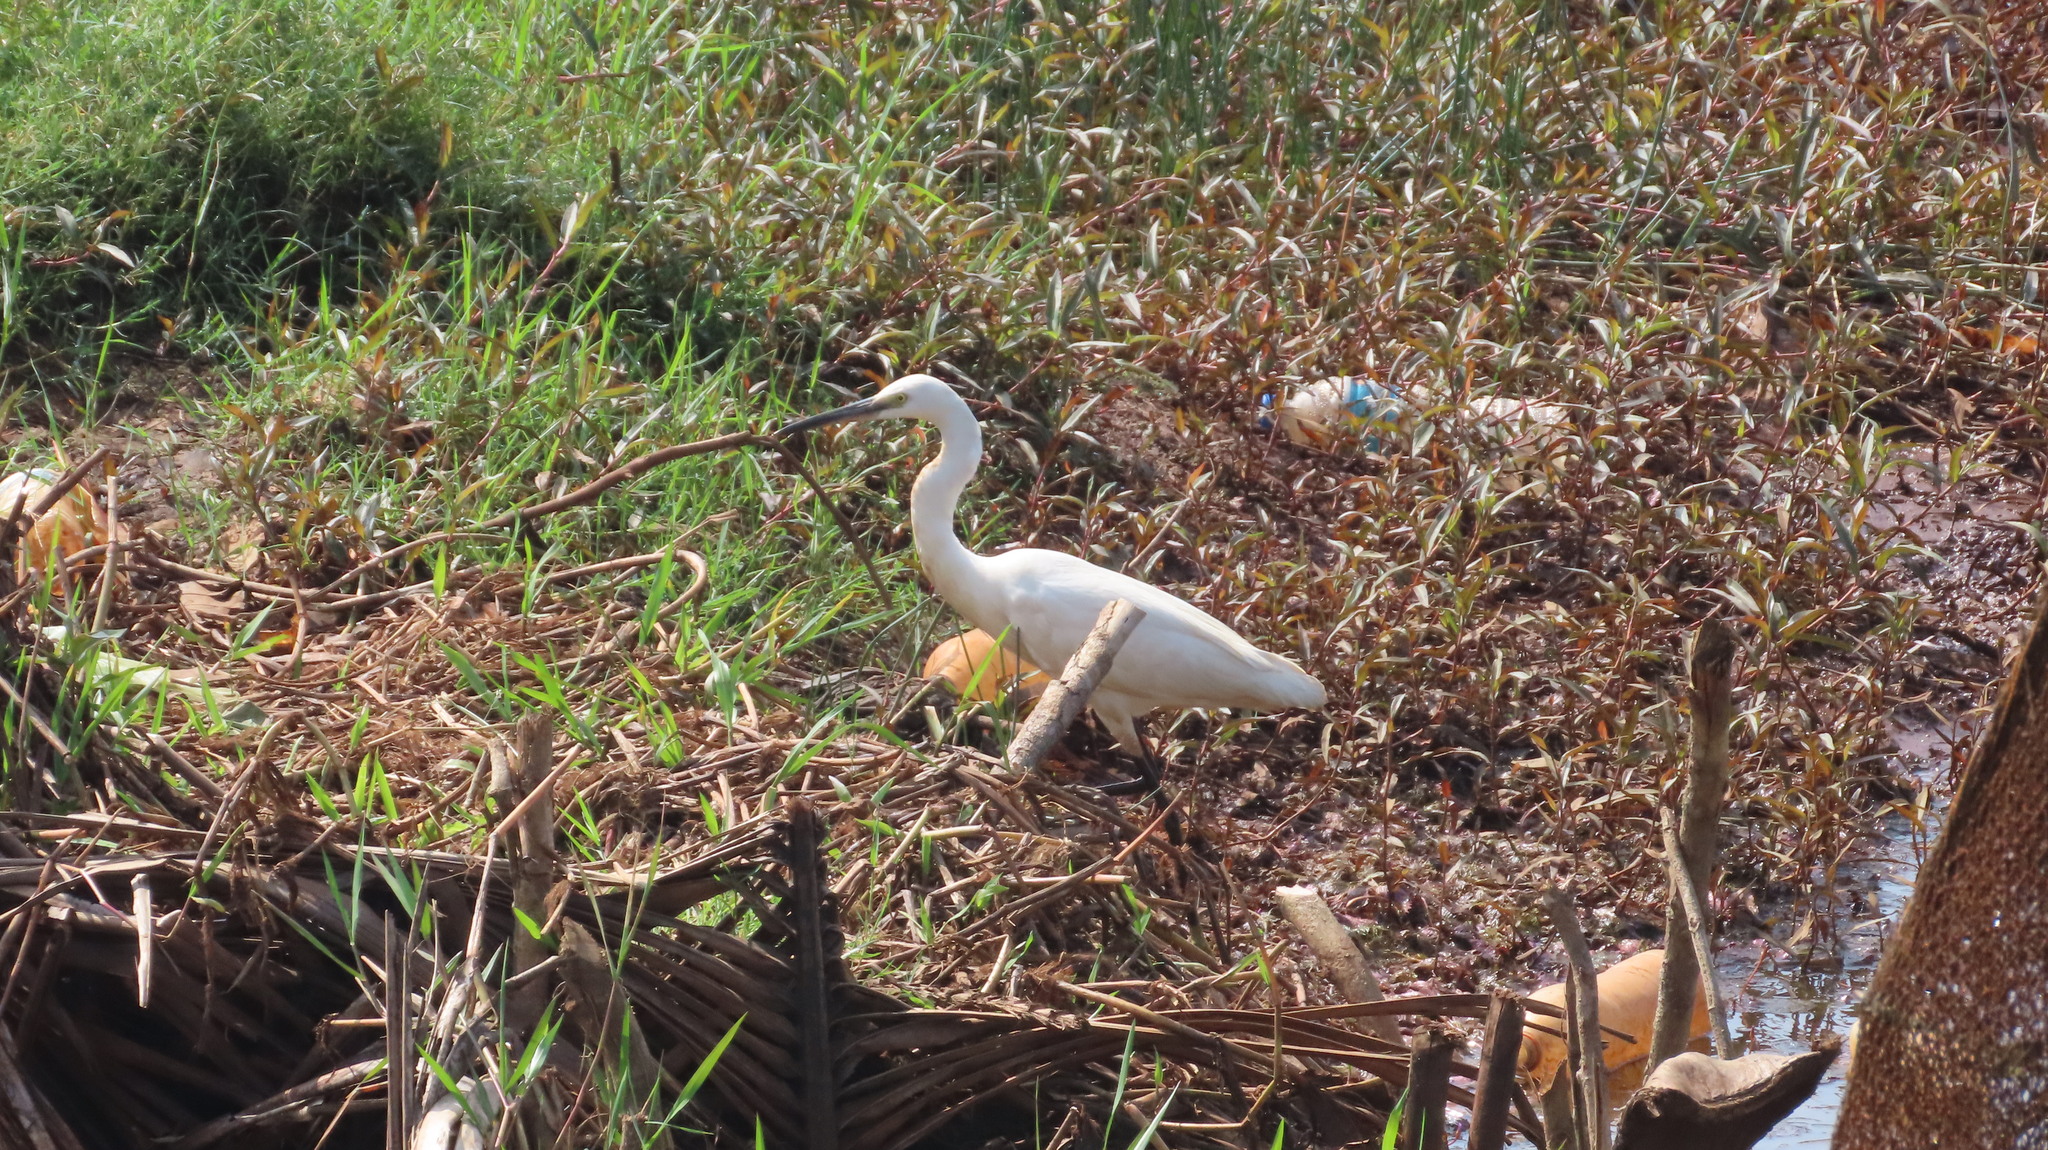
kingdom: Animalia
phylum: Chordata
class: Aves
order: Pelecaniformes
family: Ardeidae
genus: Egretta
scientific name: Egretta garzetta
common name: Little egret
